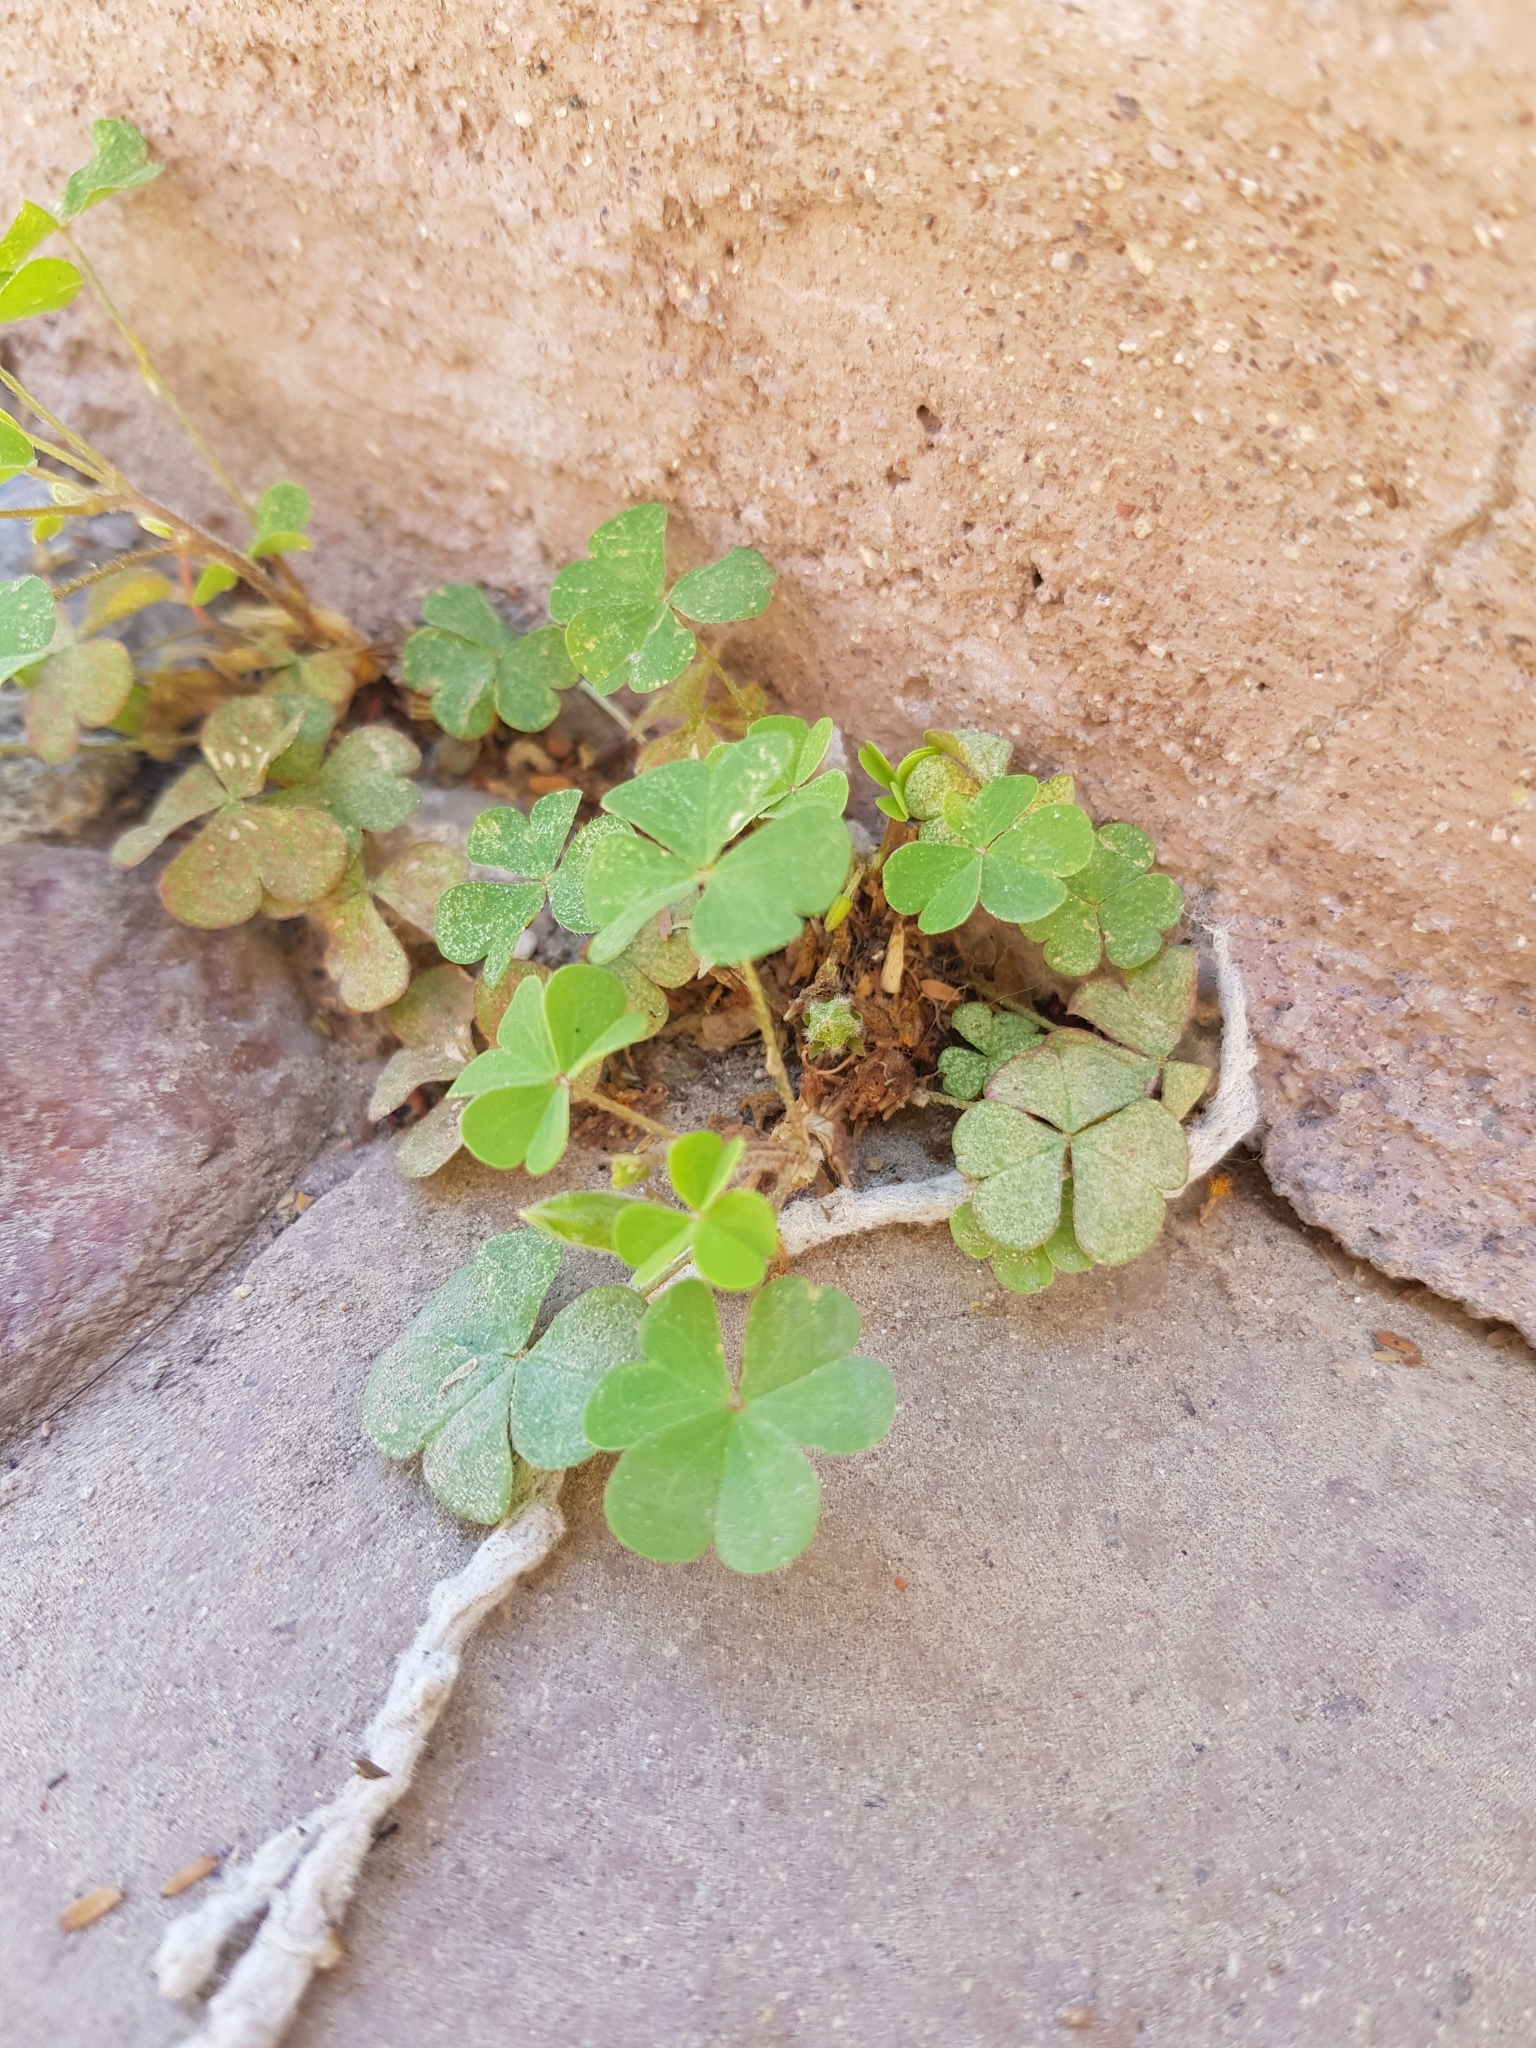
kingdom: Plantae
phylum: Tracheophyta
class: Magnoliopsida
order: Oxalidales
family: Oxalidaceae
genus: Oxalis
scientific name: Oxalis corniculata
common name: Procumbent yellow-sorrel
